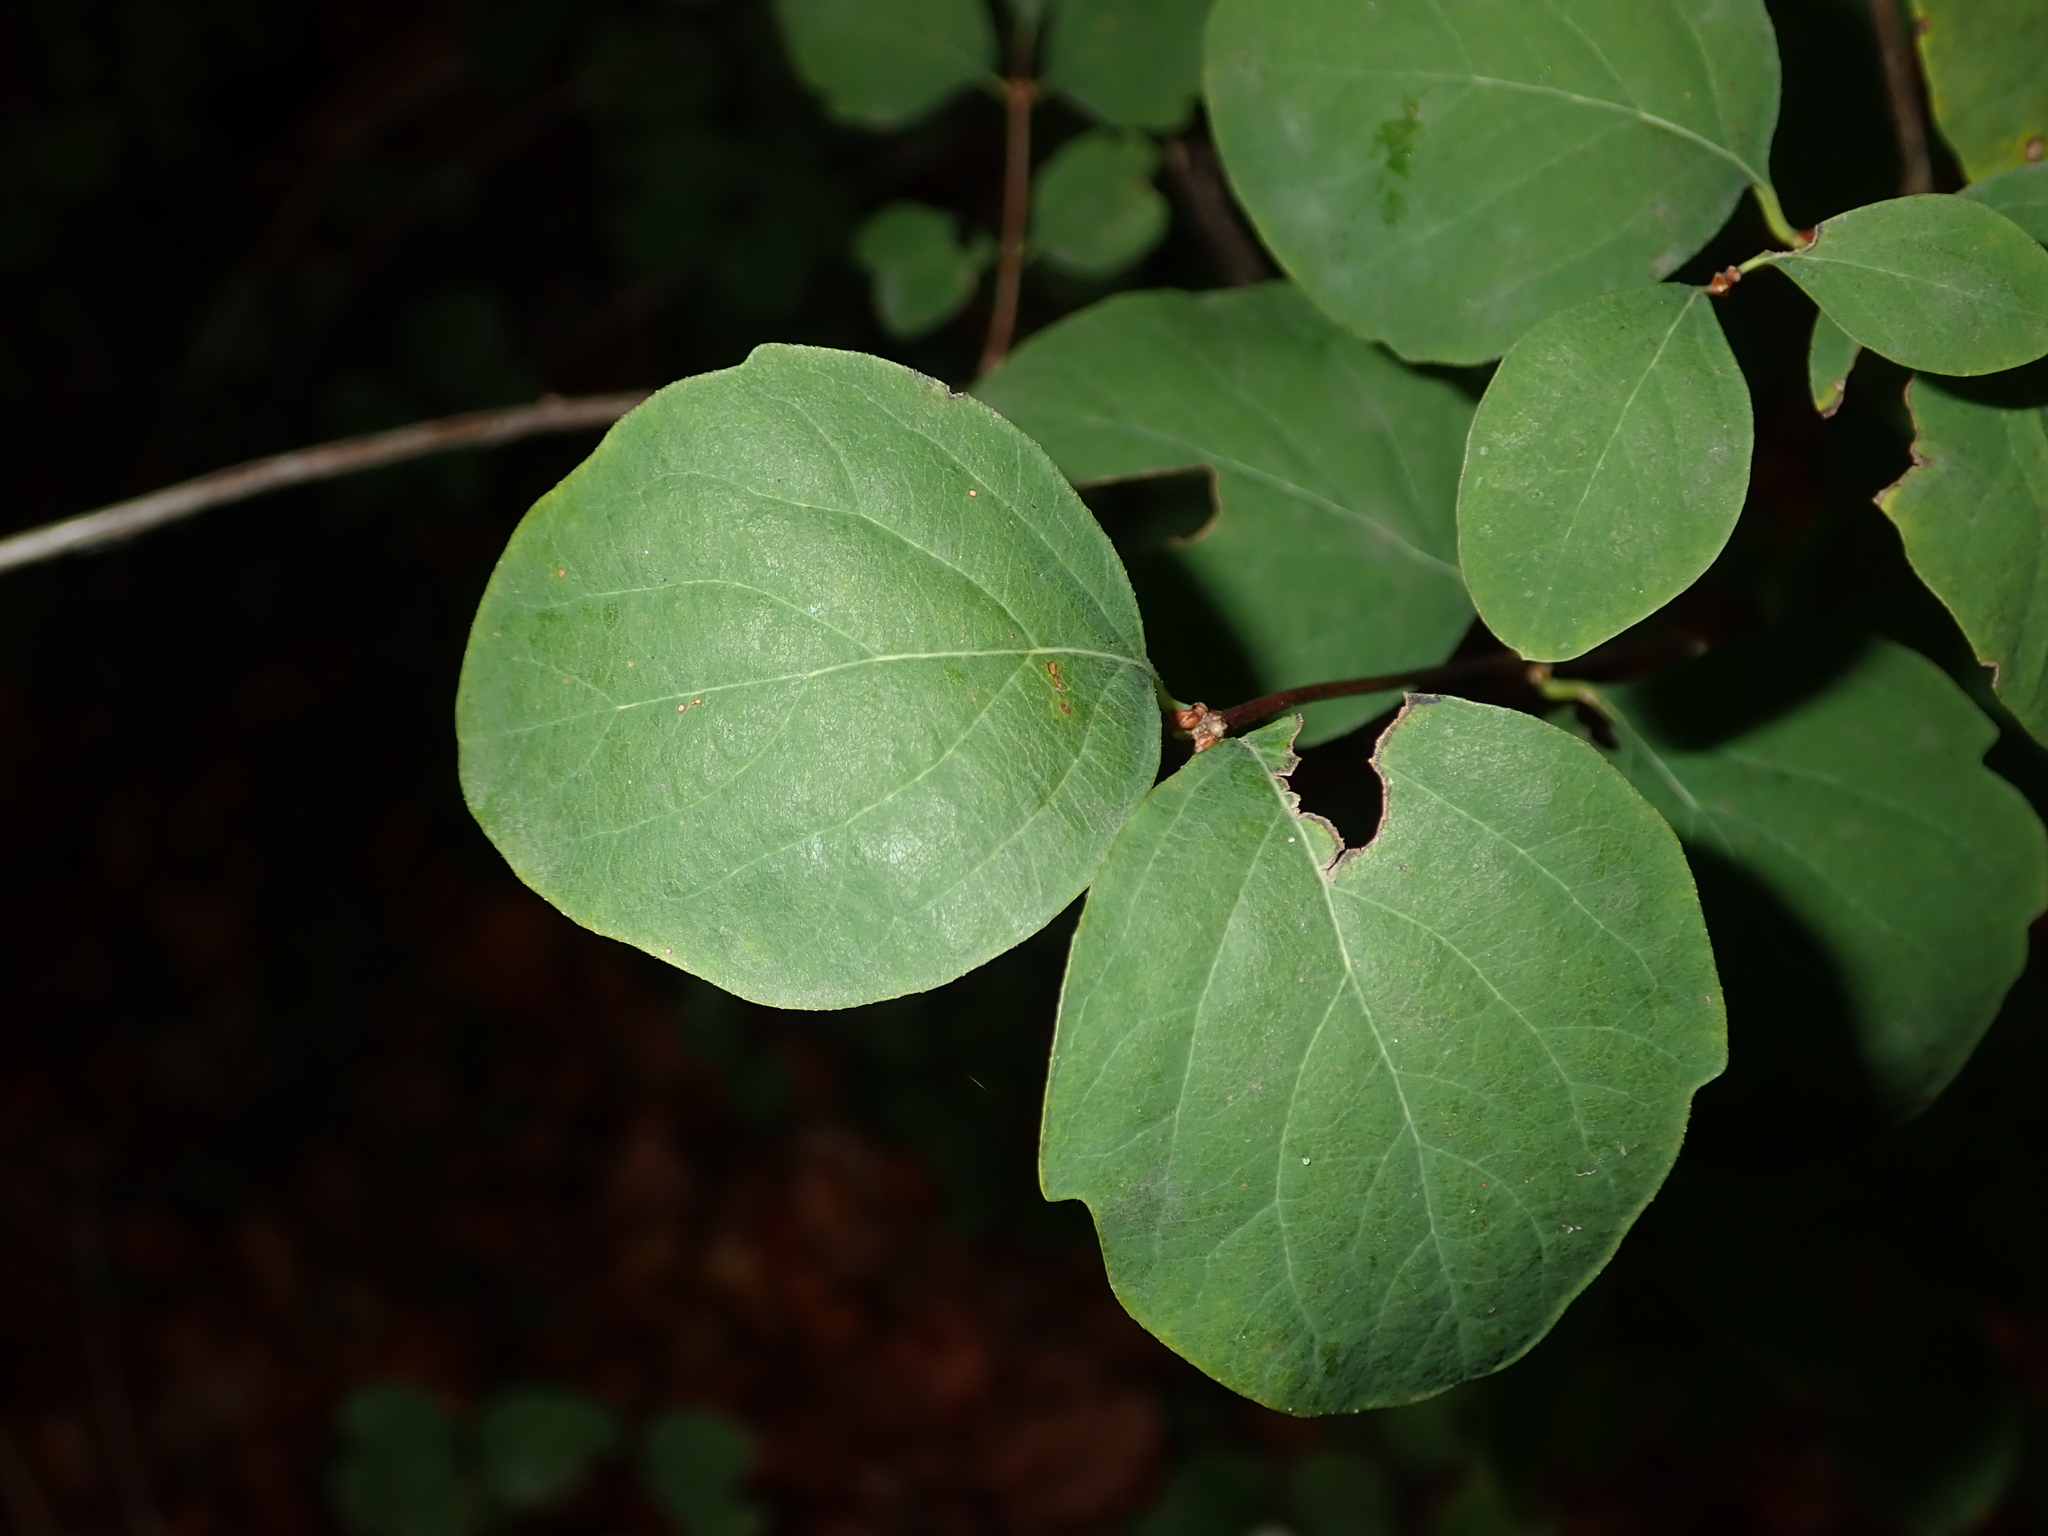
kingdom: Plantae
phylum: Tracheophyta
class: Magnoliopsida
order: Dipsacales
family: Caprifoliaceae
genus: Symphoricarpos
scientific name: Symphoricarpos albus
